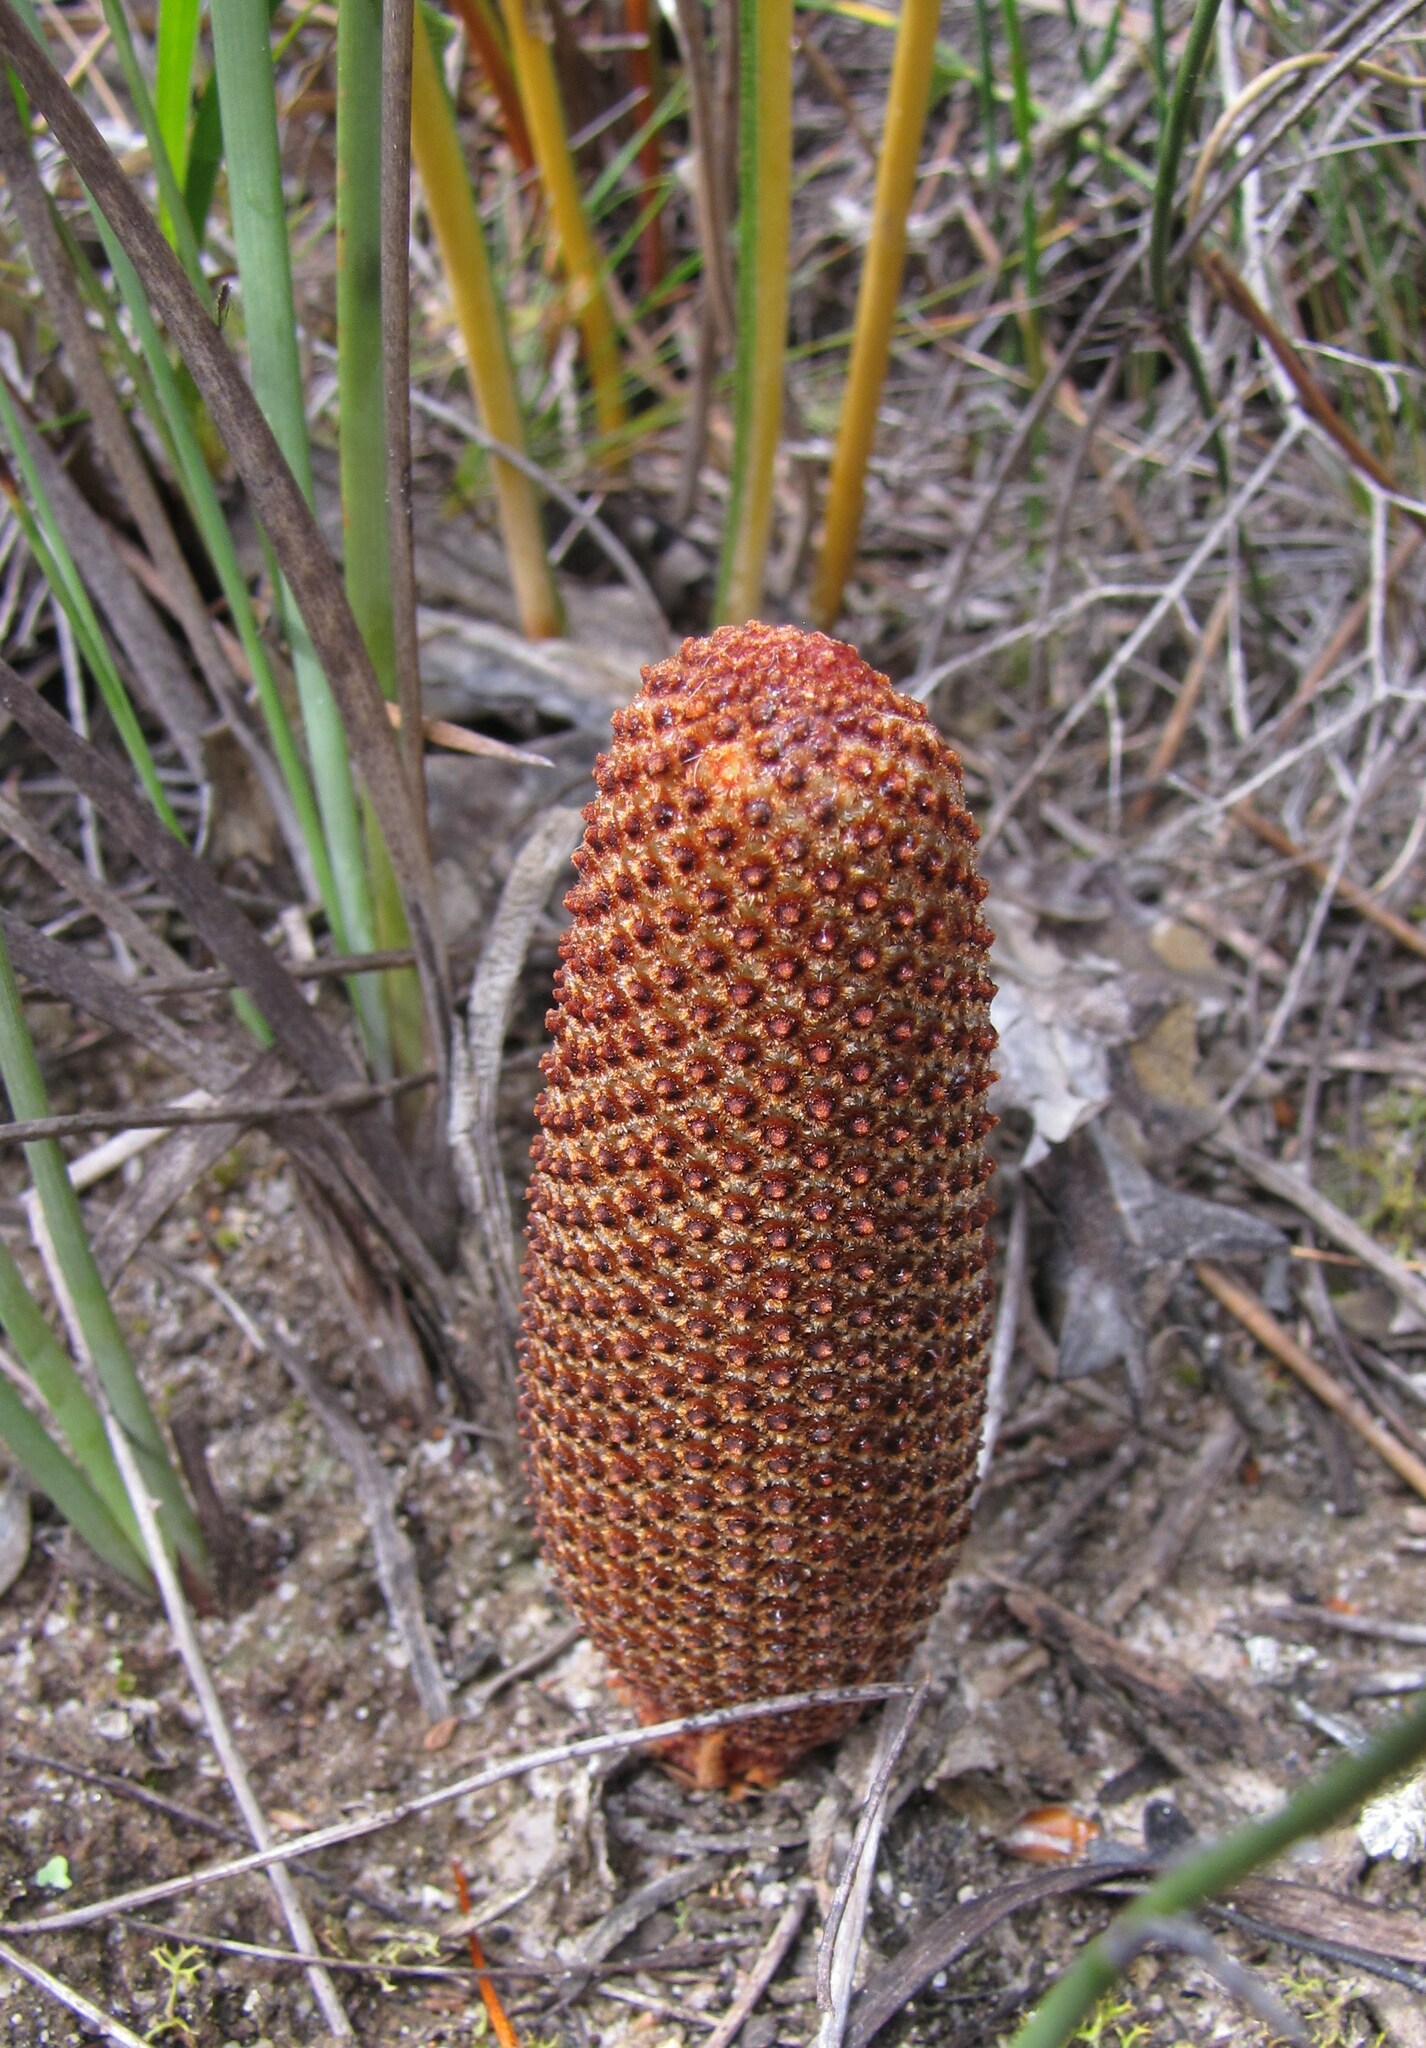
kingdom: Plantae
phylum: Tracheophyta
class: Magnoliopsida
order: Proteales
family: Proteaceae
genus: Banksia
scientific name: Banksia repens
